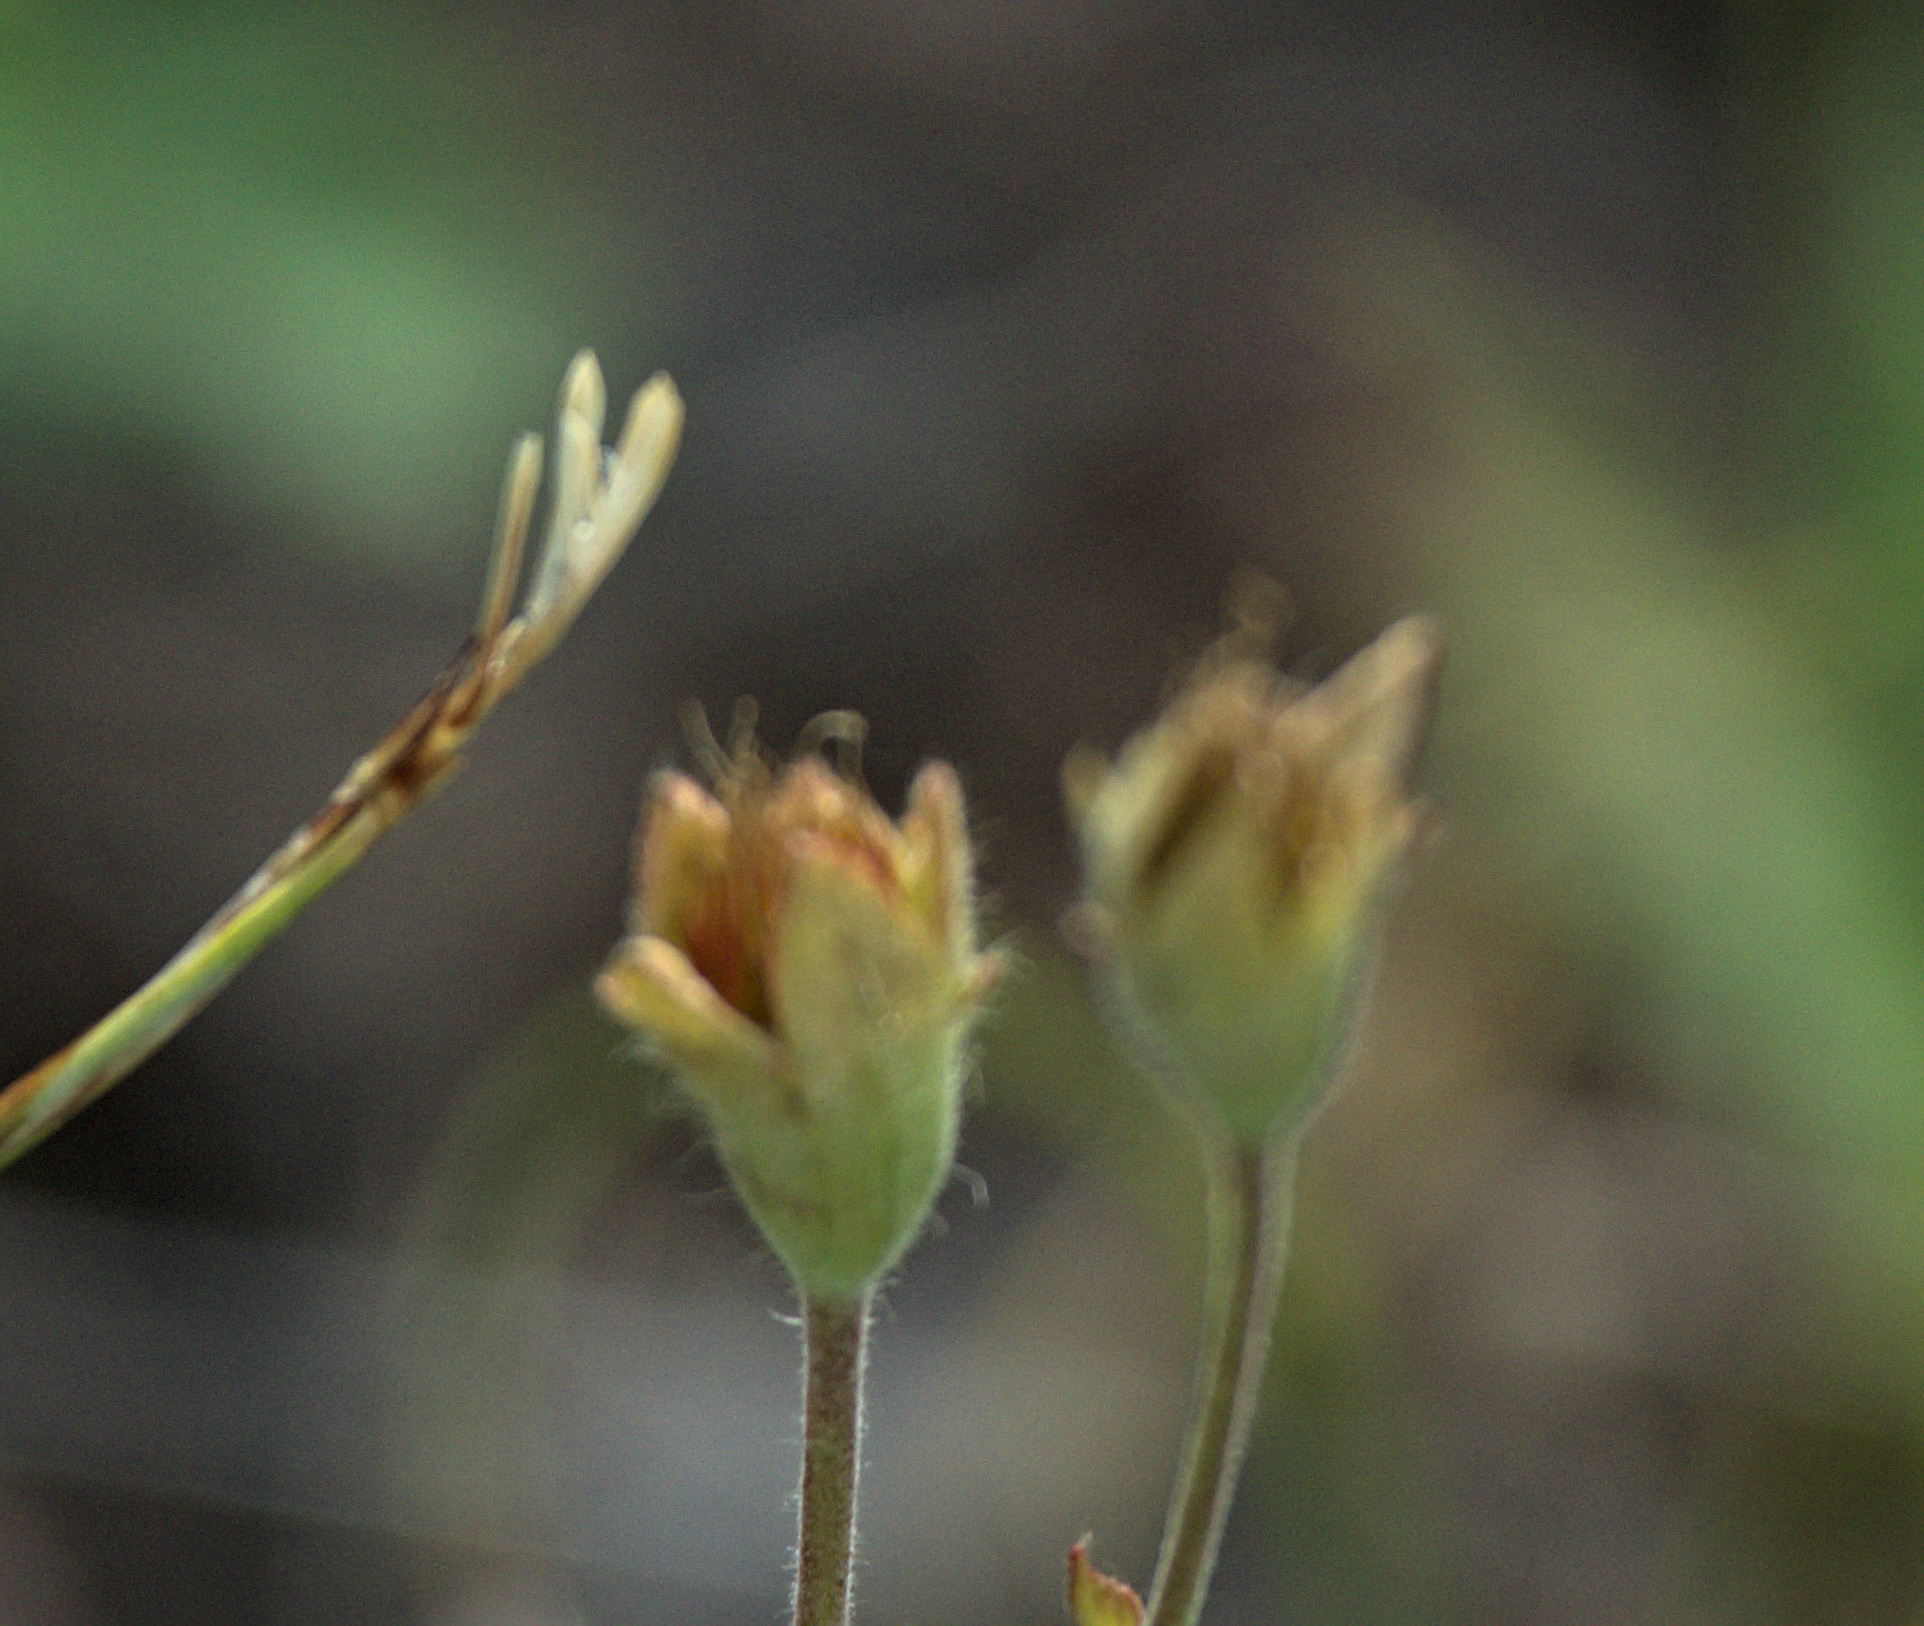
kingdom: Plantae
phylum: Tracheophyta
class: Magnoliopsida
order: Rosales
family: Rosaceae
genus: Geum
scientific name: Geum geoides
